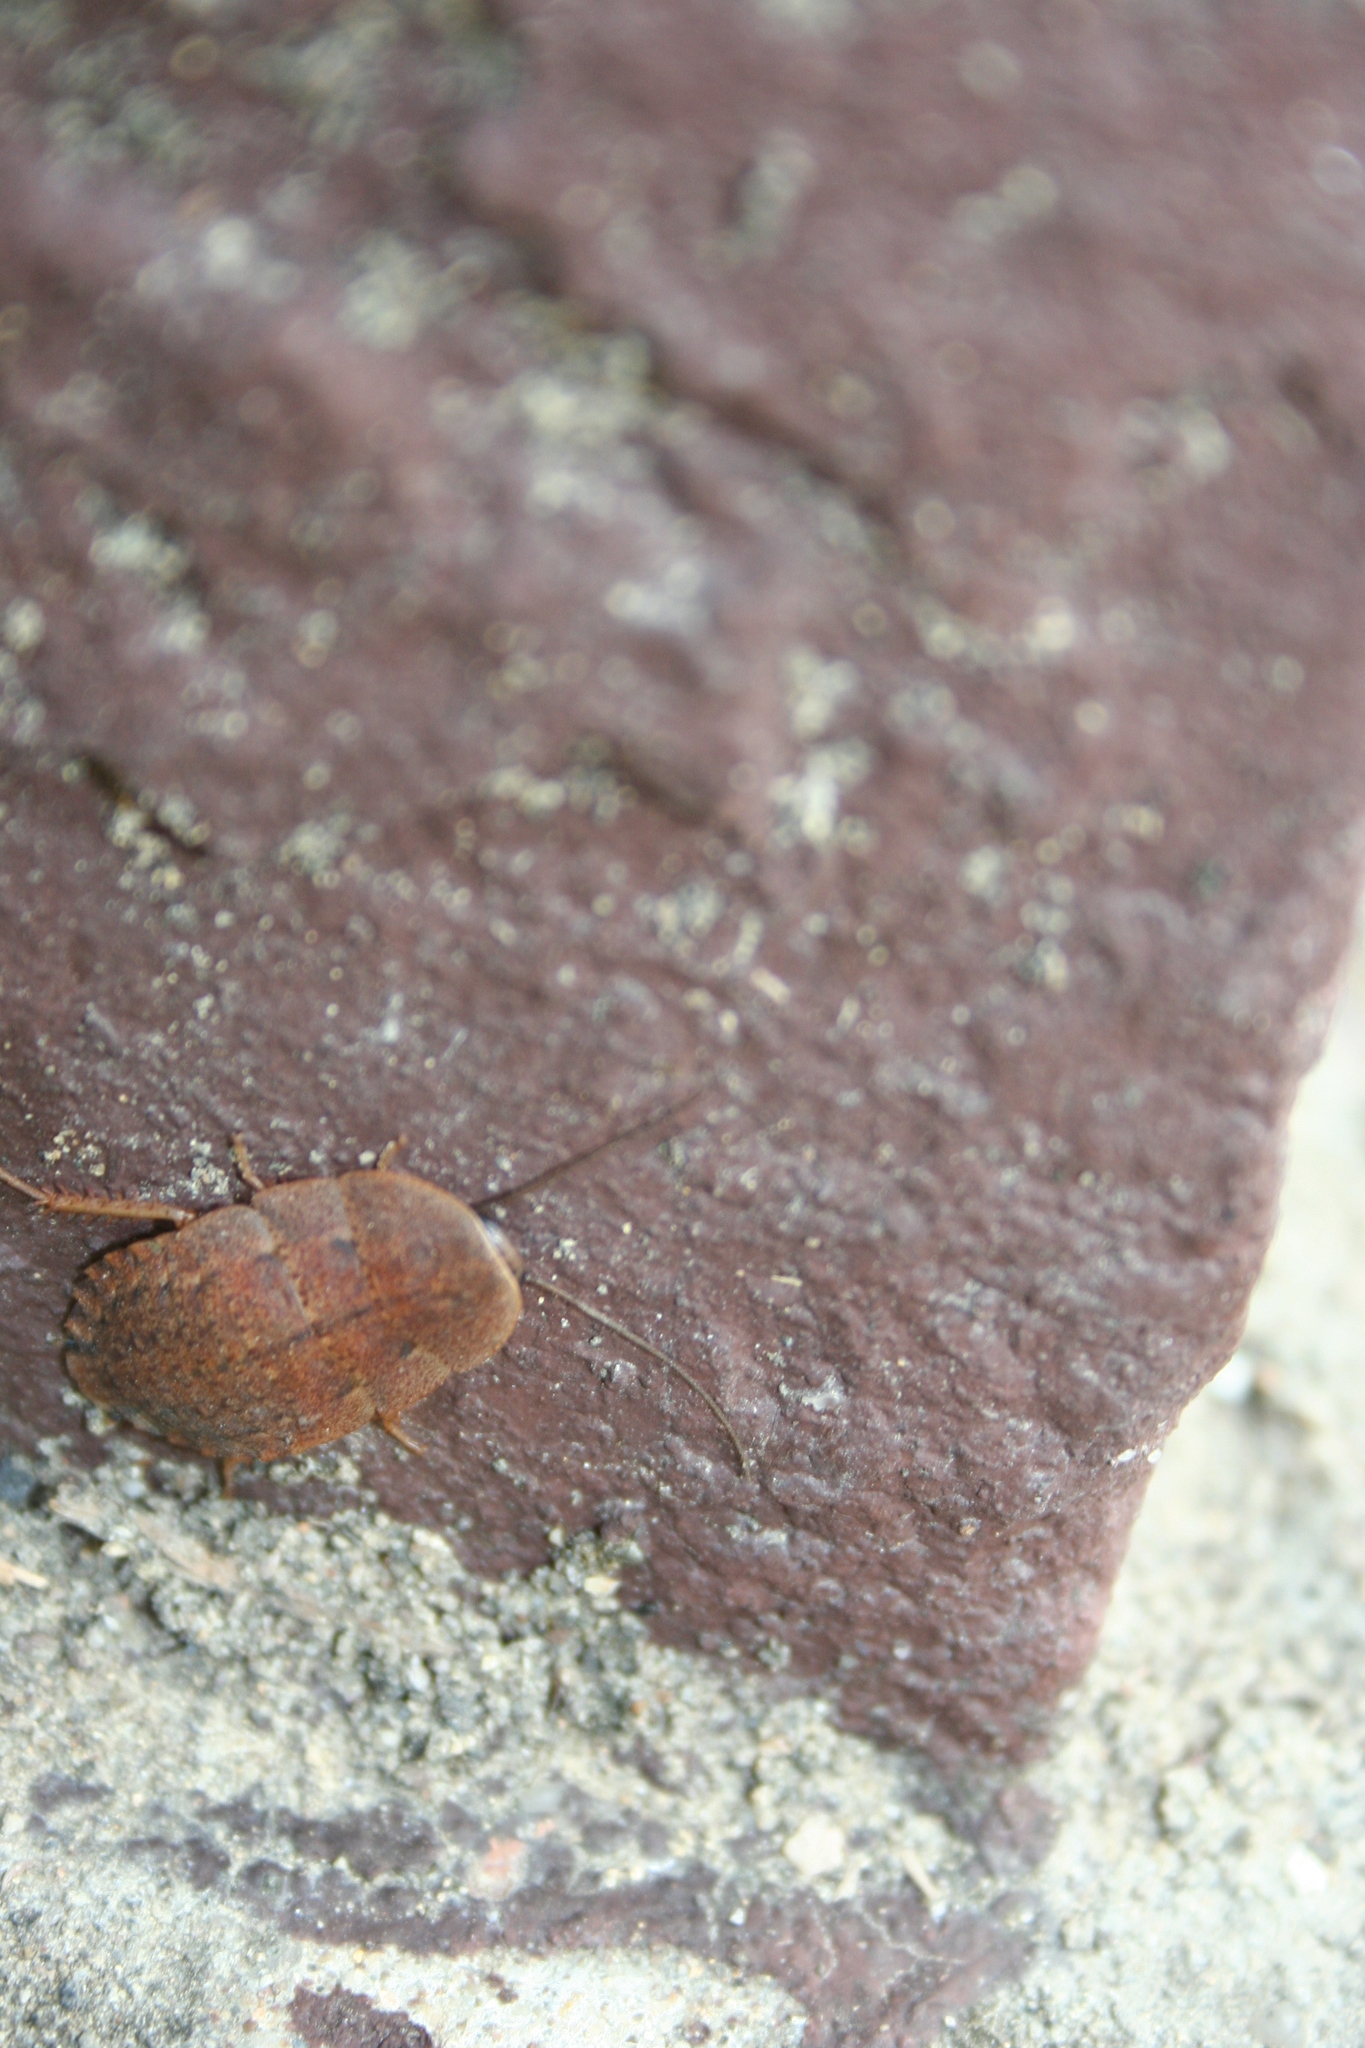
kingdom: Animalia
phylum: Arthropoda
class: Insecta
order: Blattodea
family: Blaberidae
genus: Opisthoplatia
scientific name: Opisthoplatia orientalis
